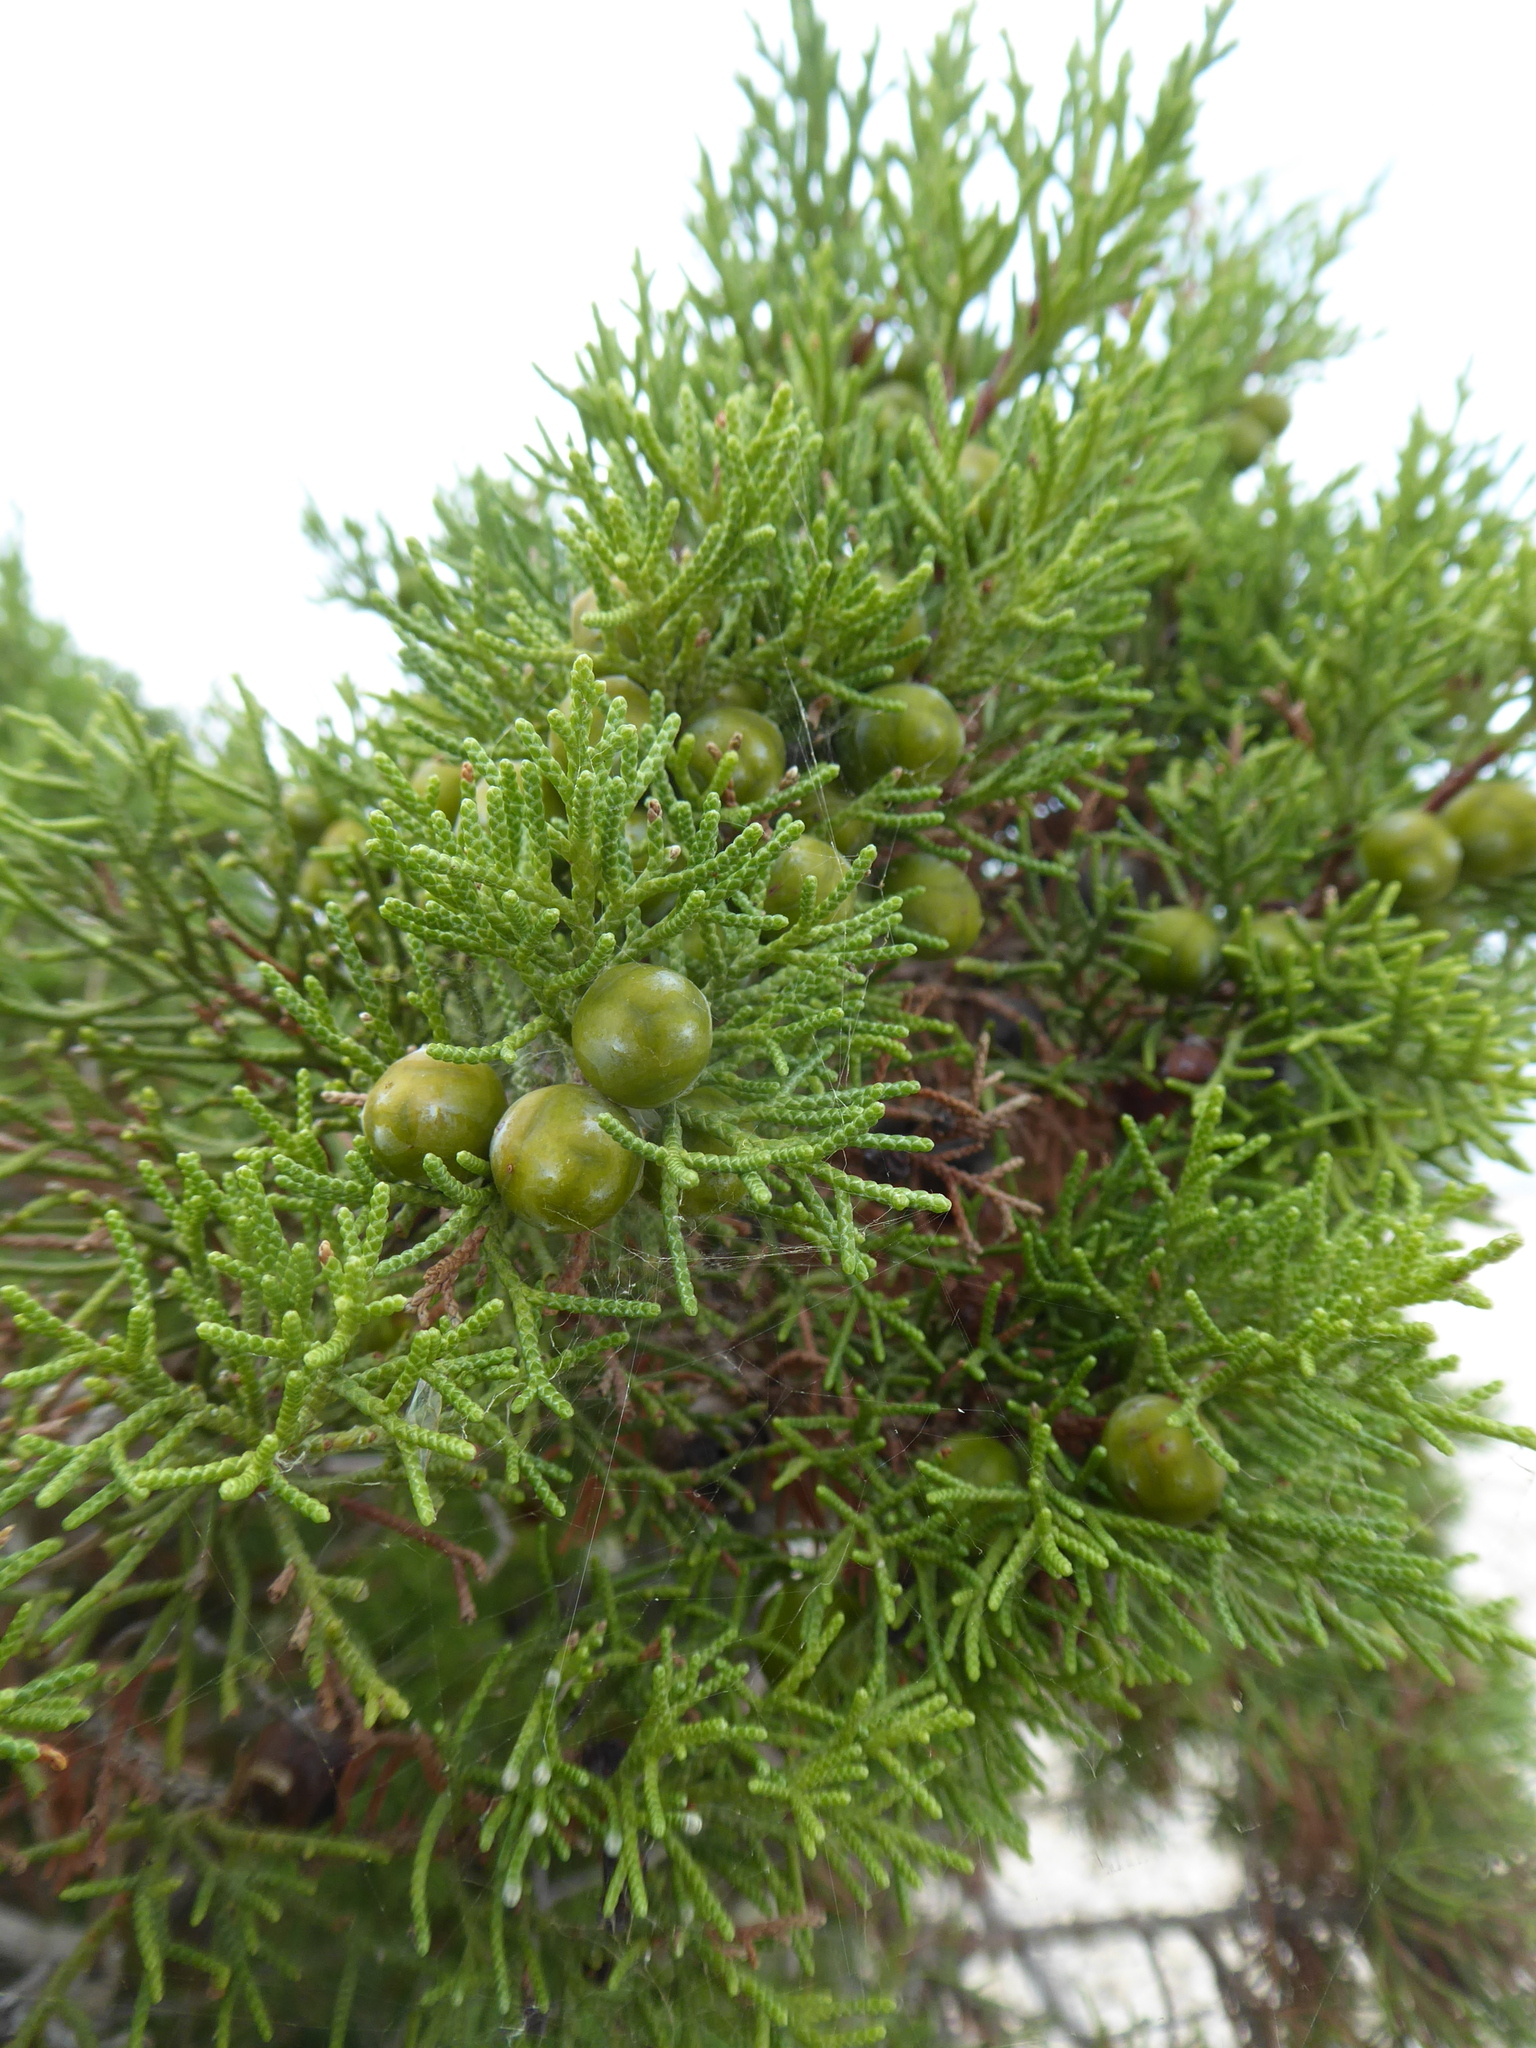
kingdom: Plantae
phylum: Tracheophyta
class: Pinopsida
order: Pinales
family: Cupressaceae
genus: Juniperus
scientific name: Juniperus phoenicea
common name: Phoenician juniper
